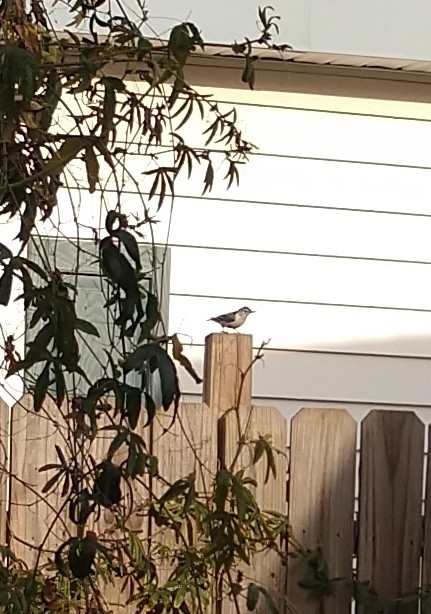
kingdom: Animalia
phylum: Chordata
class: Aves
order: Passeriformes
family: Sittidae
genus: Sitta
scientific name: Sitta carolinensis
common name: White-breasted nuthatch
